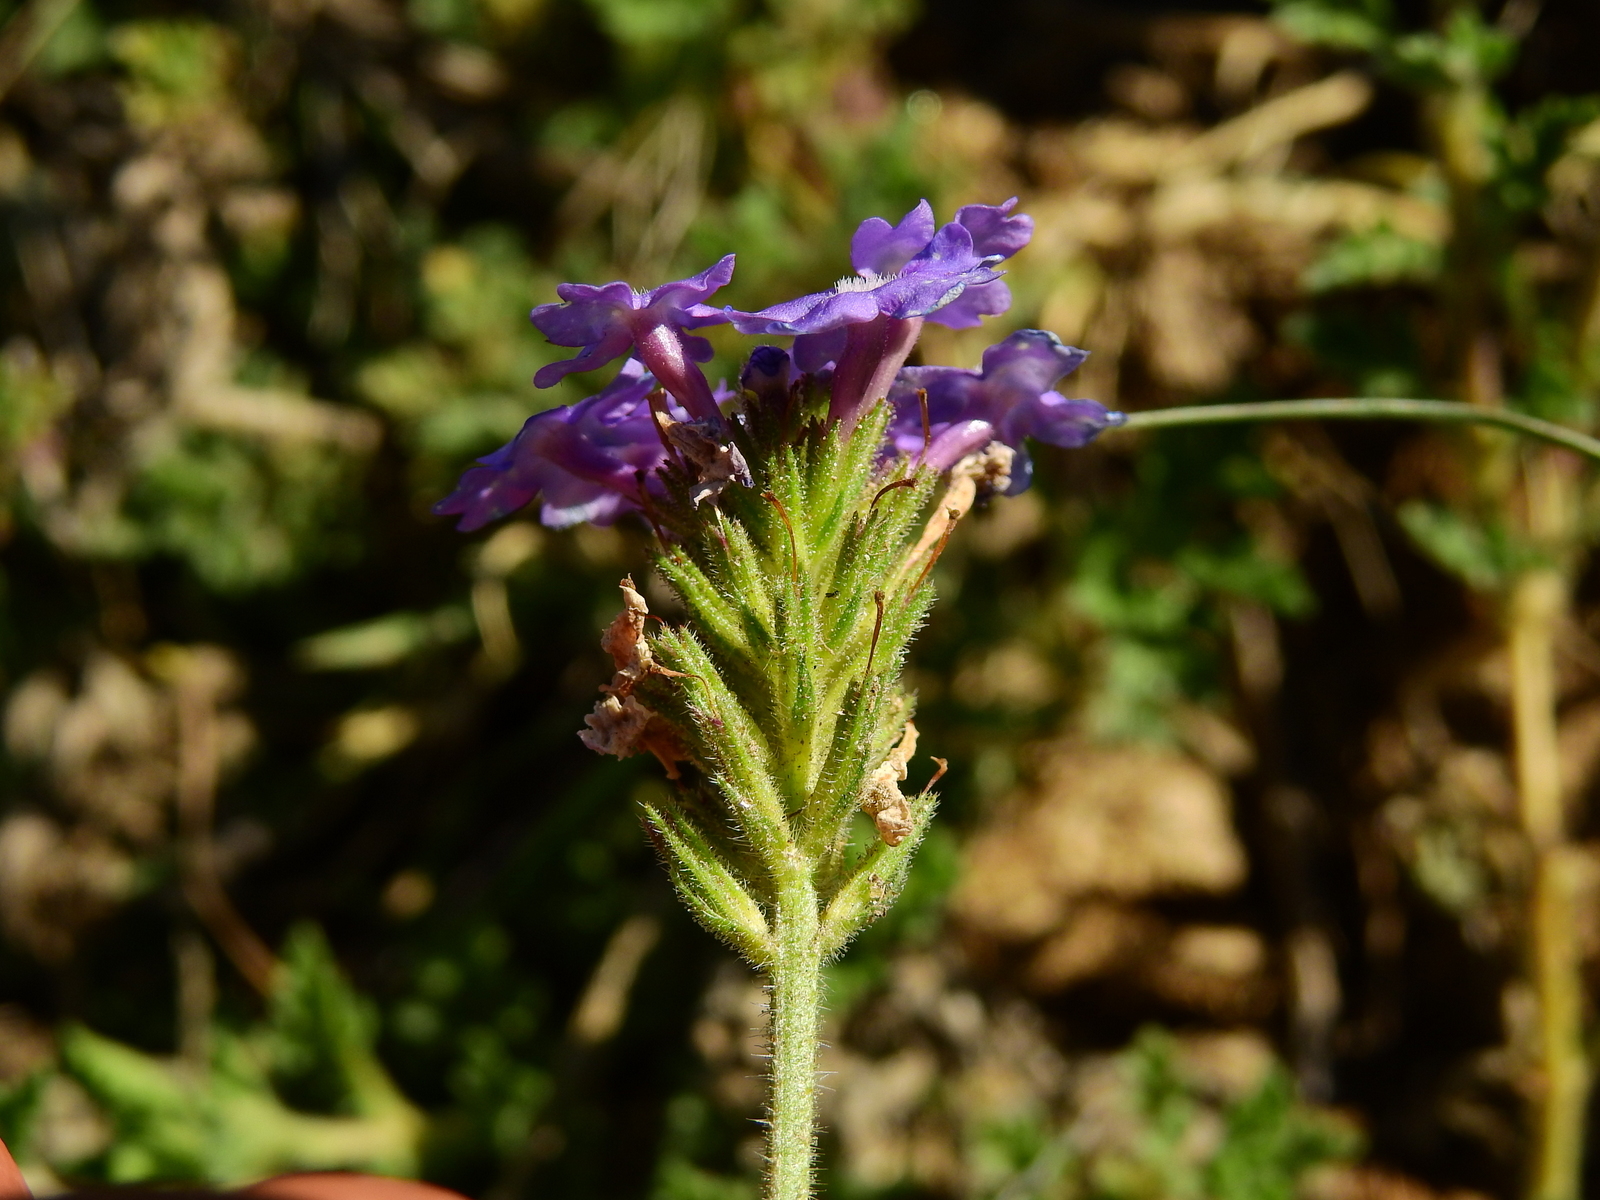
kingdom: Plantae
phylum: Tracheophyta
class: Magnoliopsida
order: Lamiales
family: Verbenaceae
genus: Verbena
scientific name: Verbena venturii
